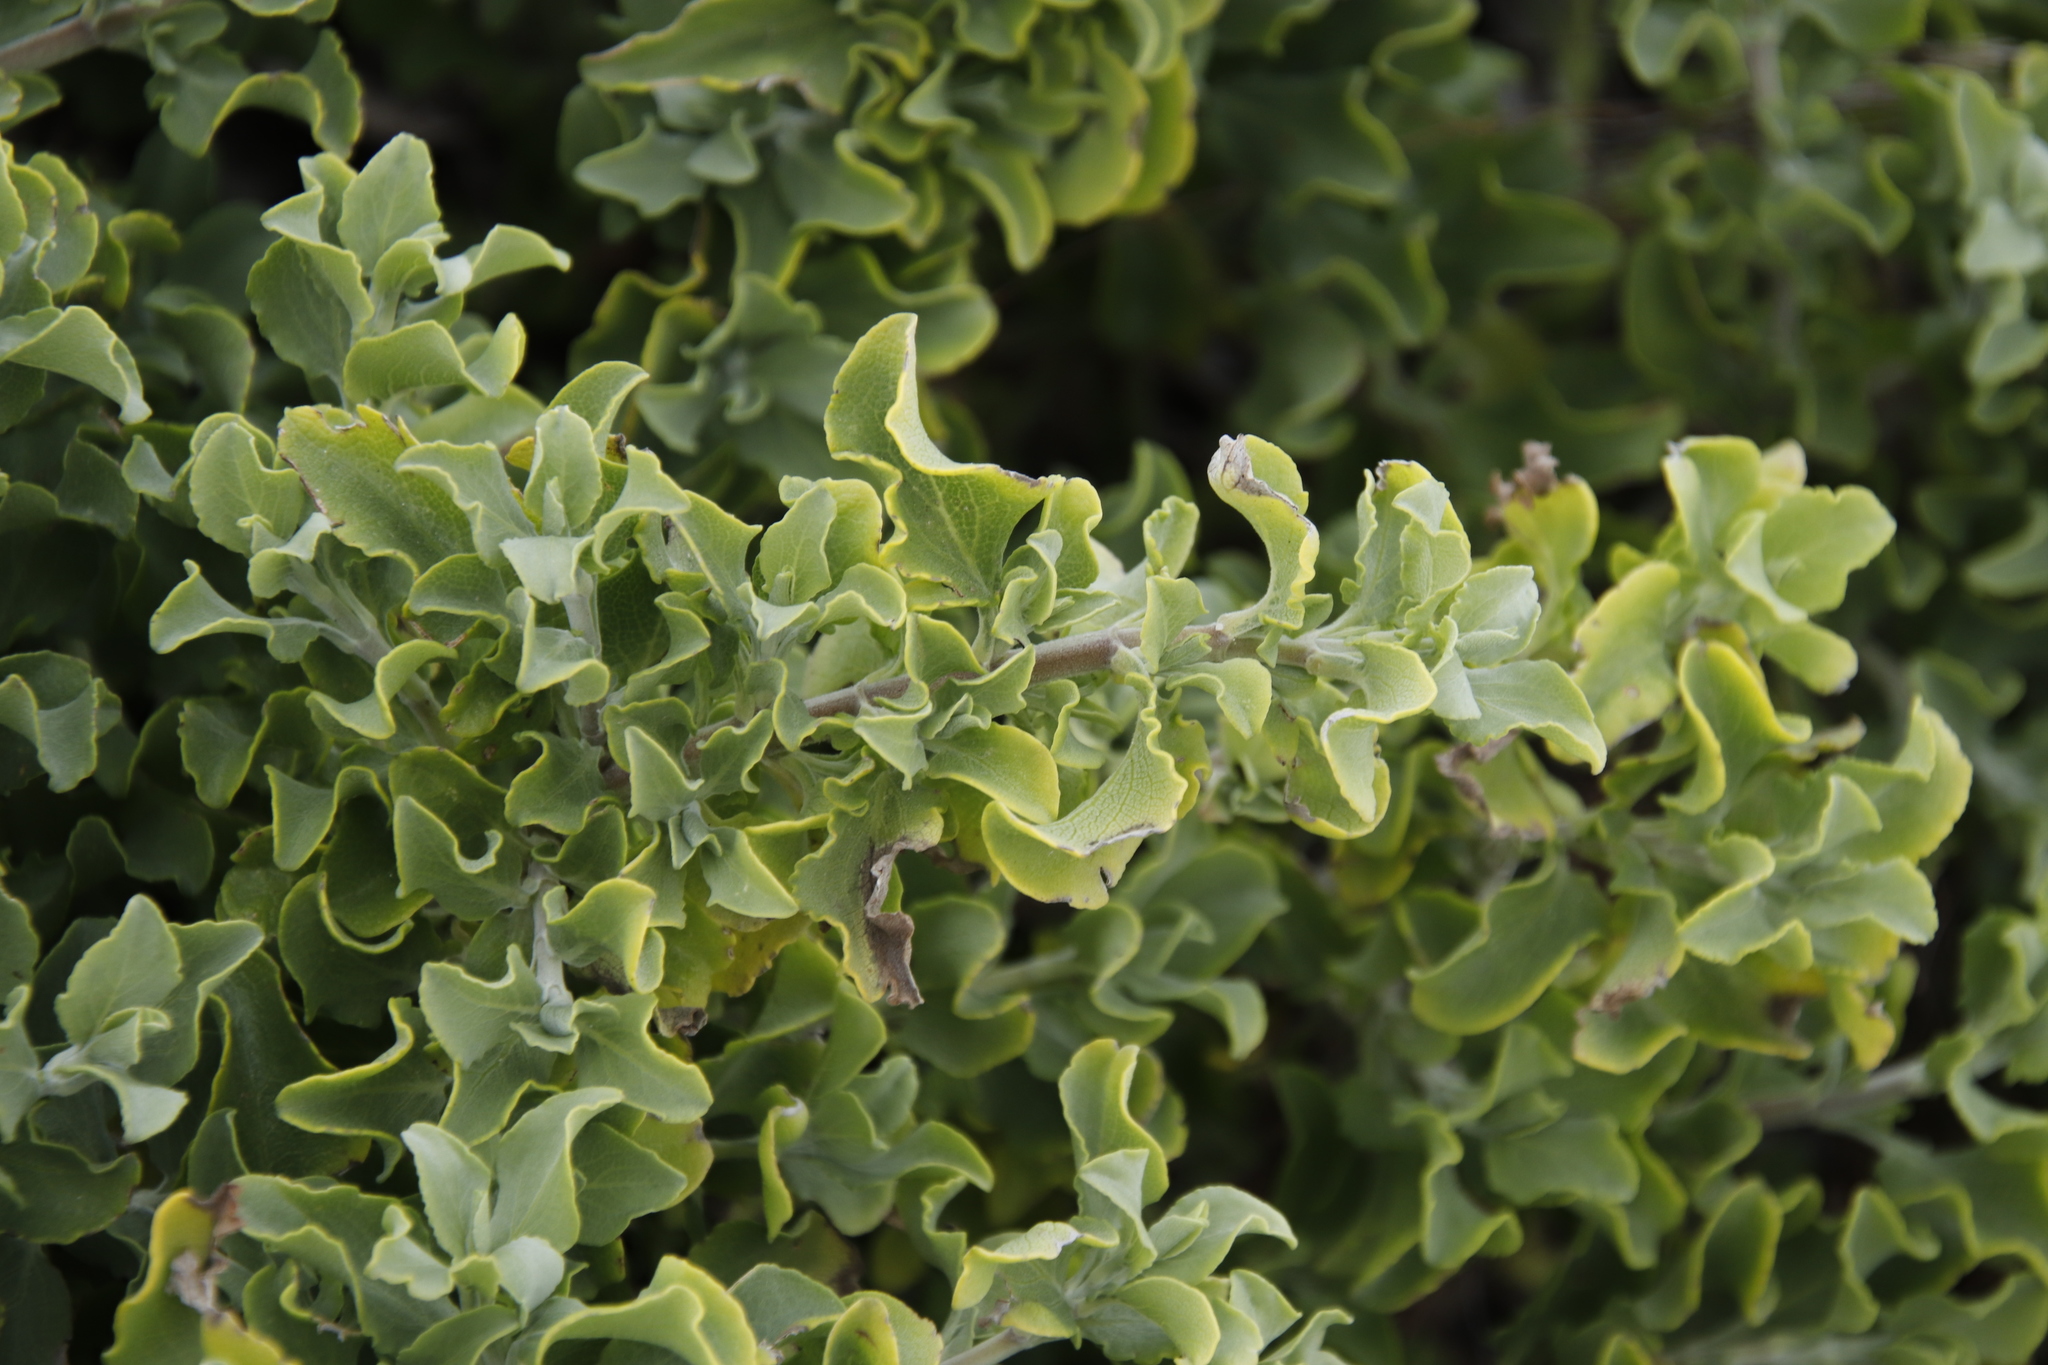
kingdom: Plantae
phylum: Tracheophyta
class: Magnoliopsida
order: Lamiales
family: Lamiaceae
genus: Salvia
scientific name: Salvia aurea
